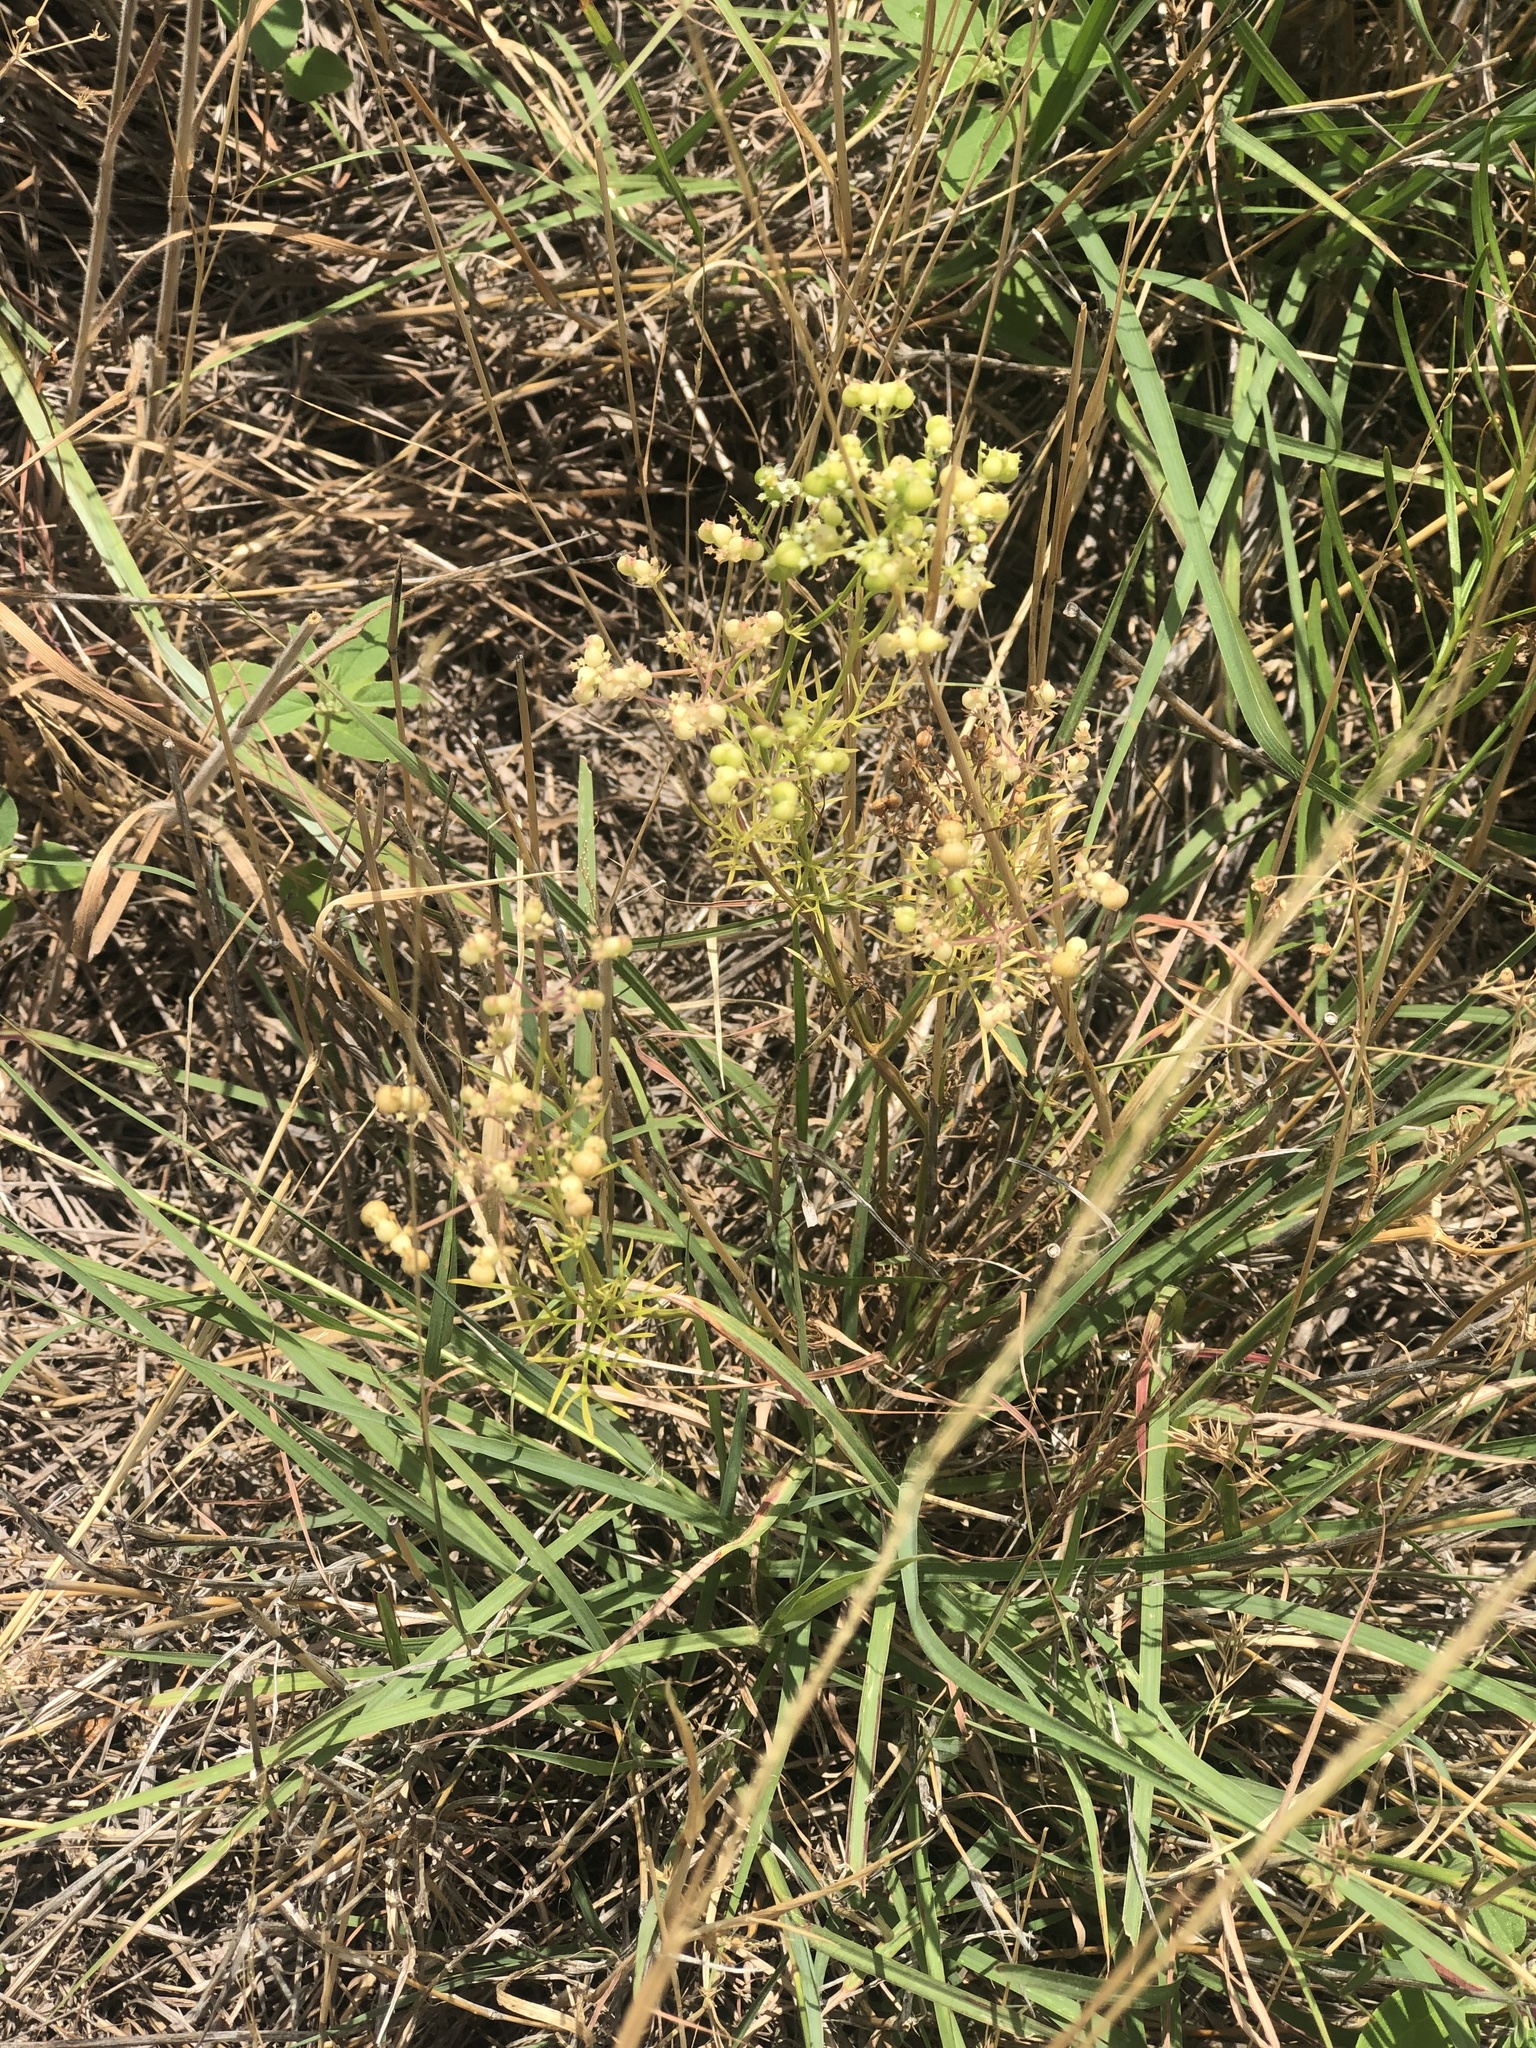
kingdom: Plantae
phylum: Tracheophyta
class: Magnoliopsida
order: Apiales
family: Apiaceae
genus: Atrema
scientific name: Atrema americanum
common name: Prairie-bishop
